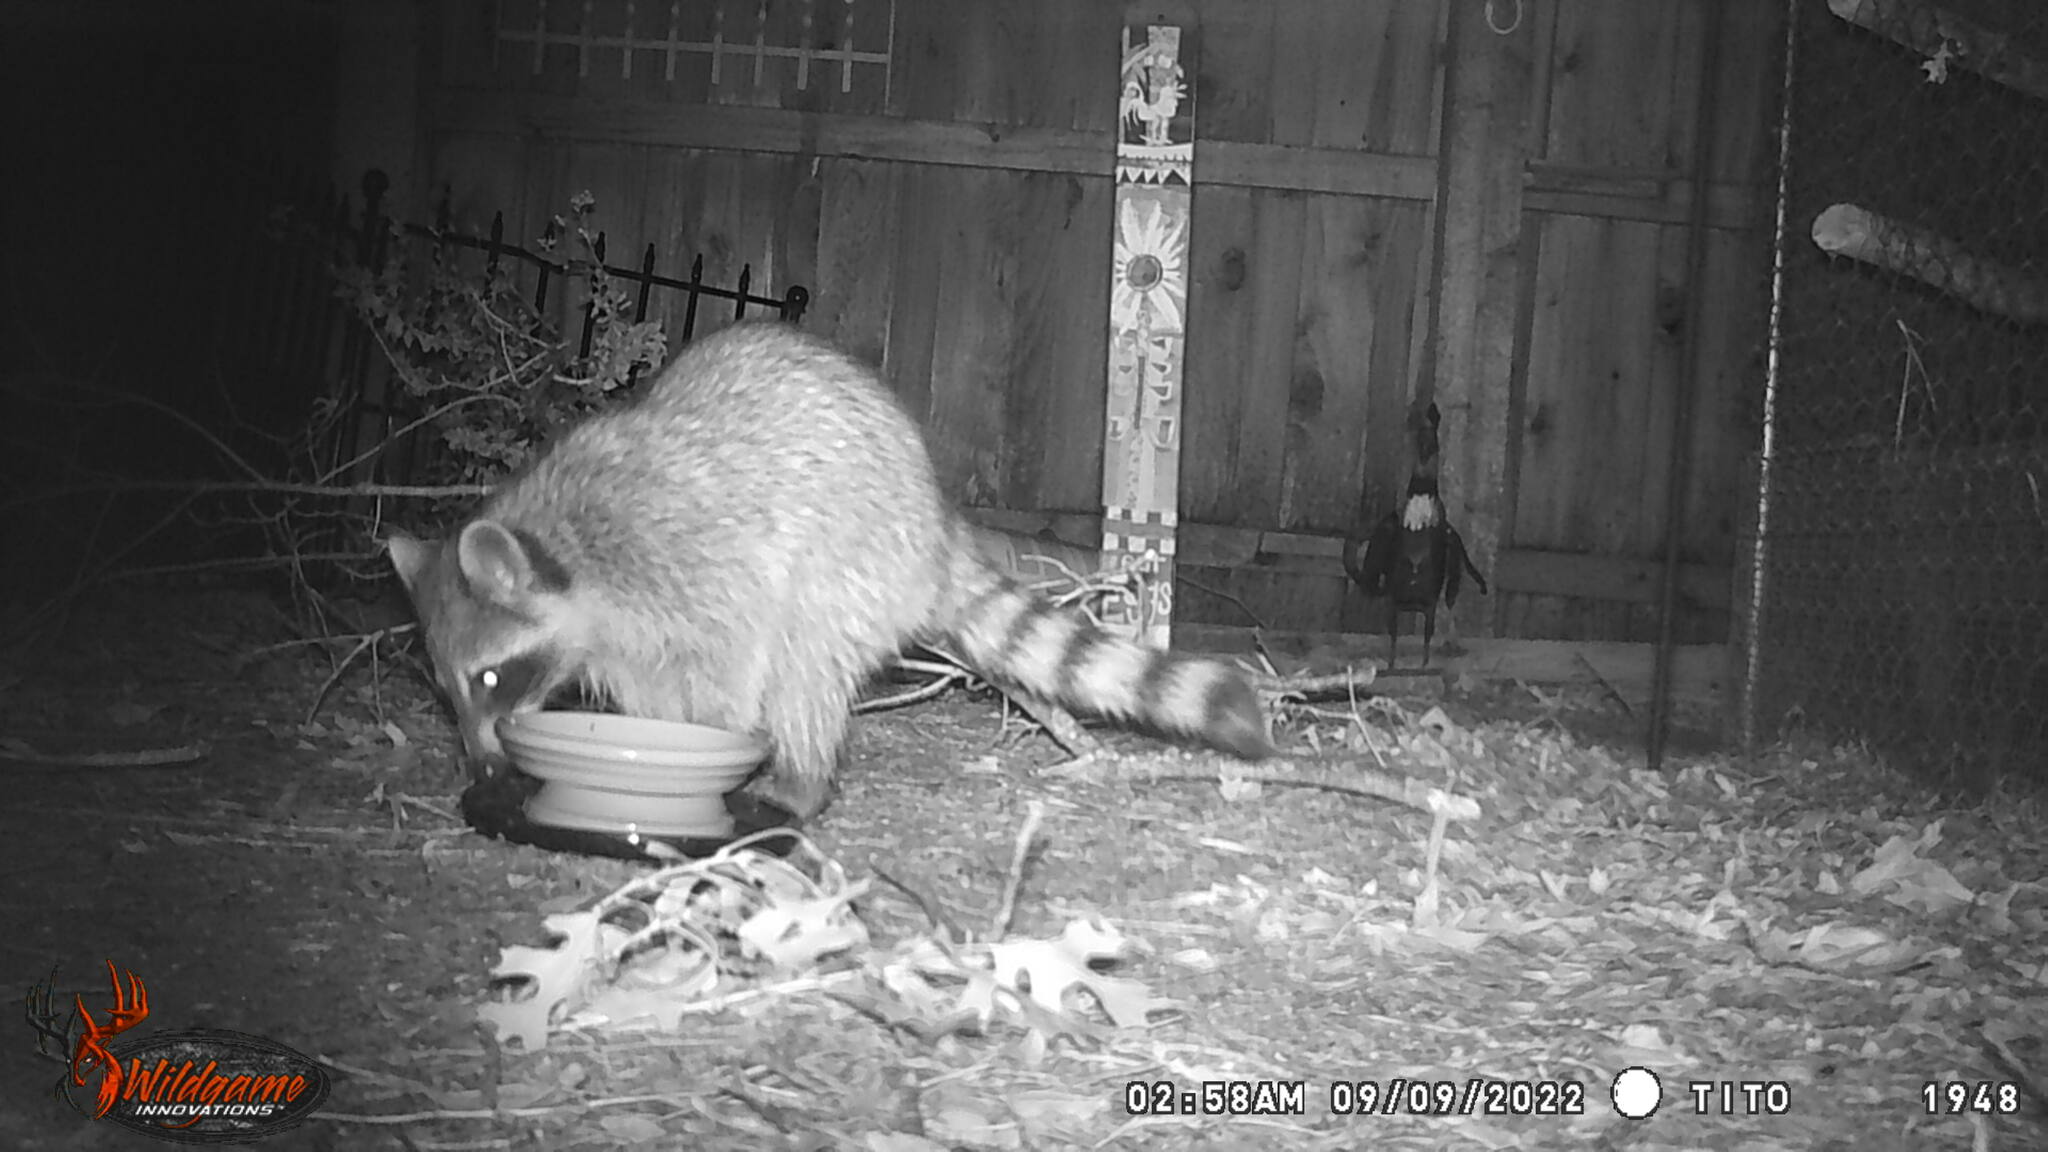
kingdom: Animalia
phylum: Chordata
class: Mammalia
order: Carnivora
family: Procyonidae
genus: Procyon
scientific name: Procyon lotor
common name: Raccoon
